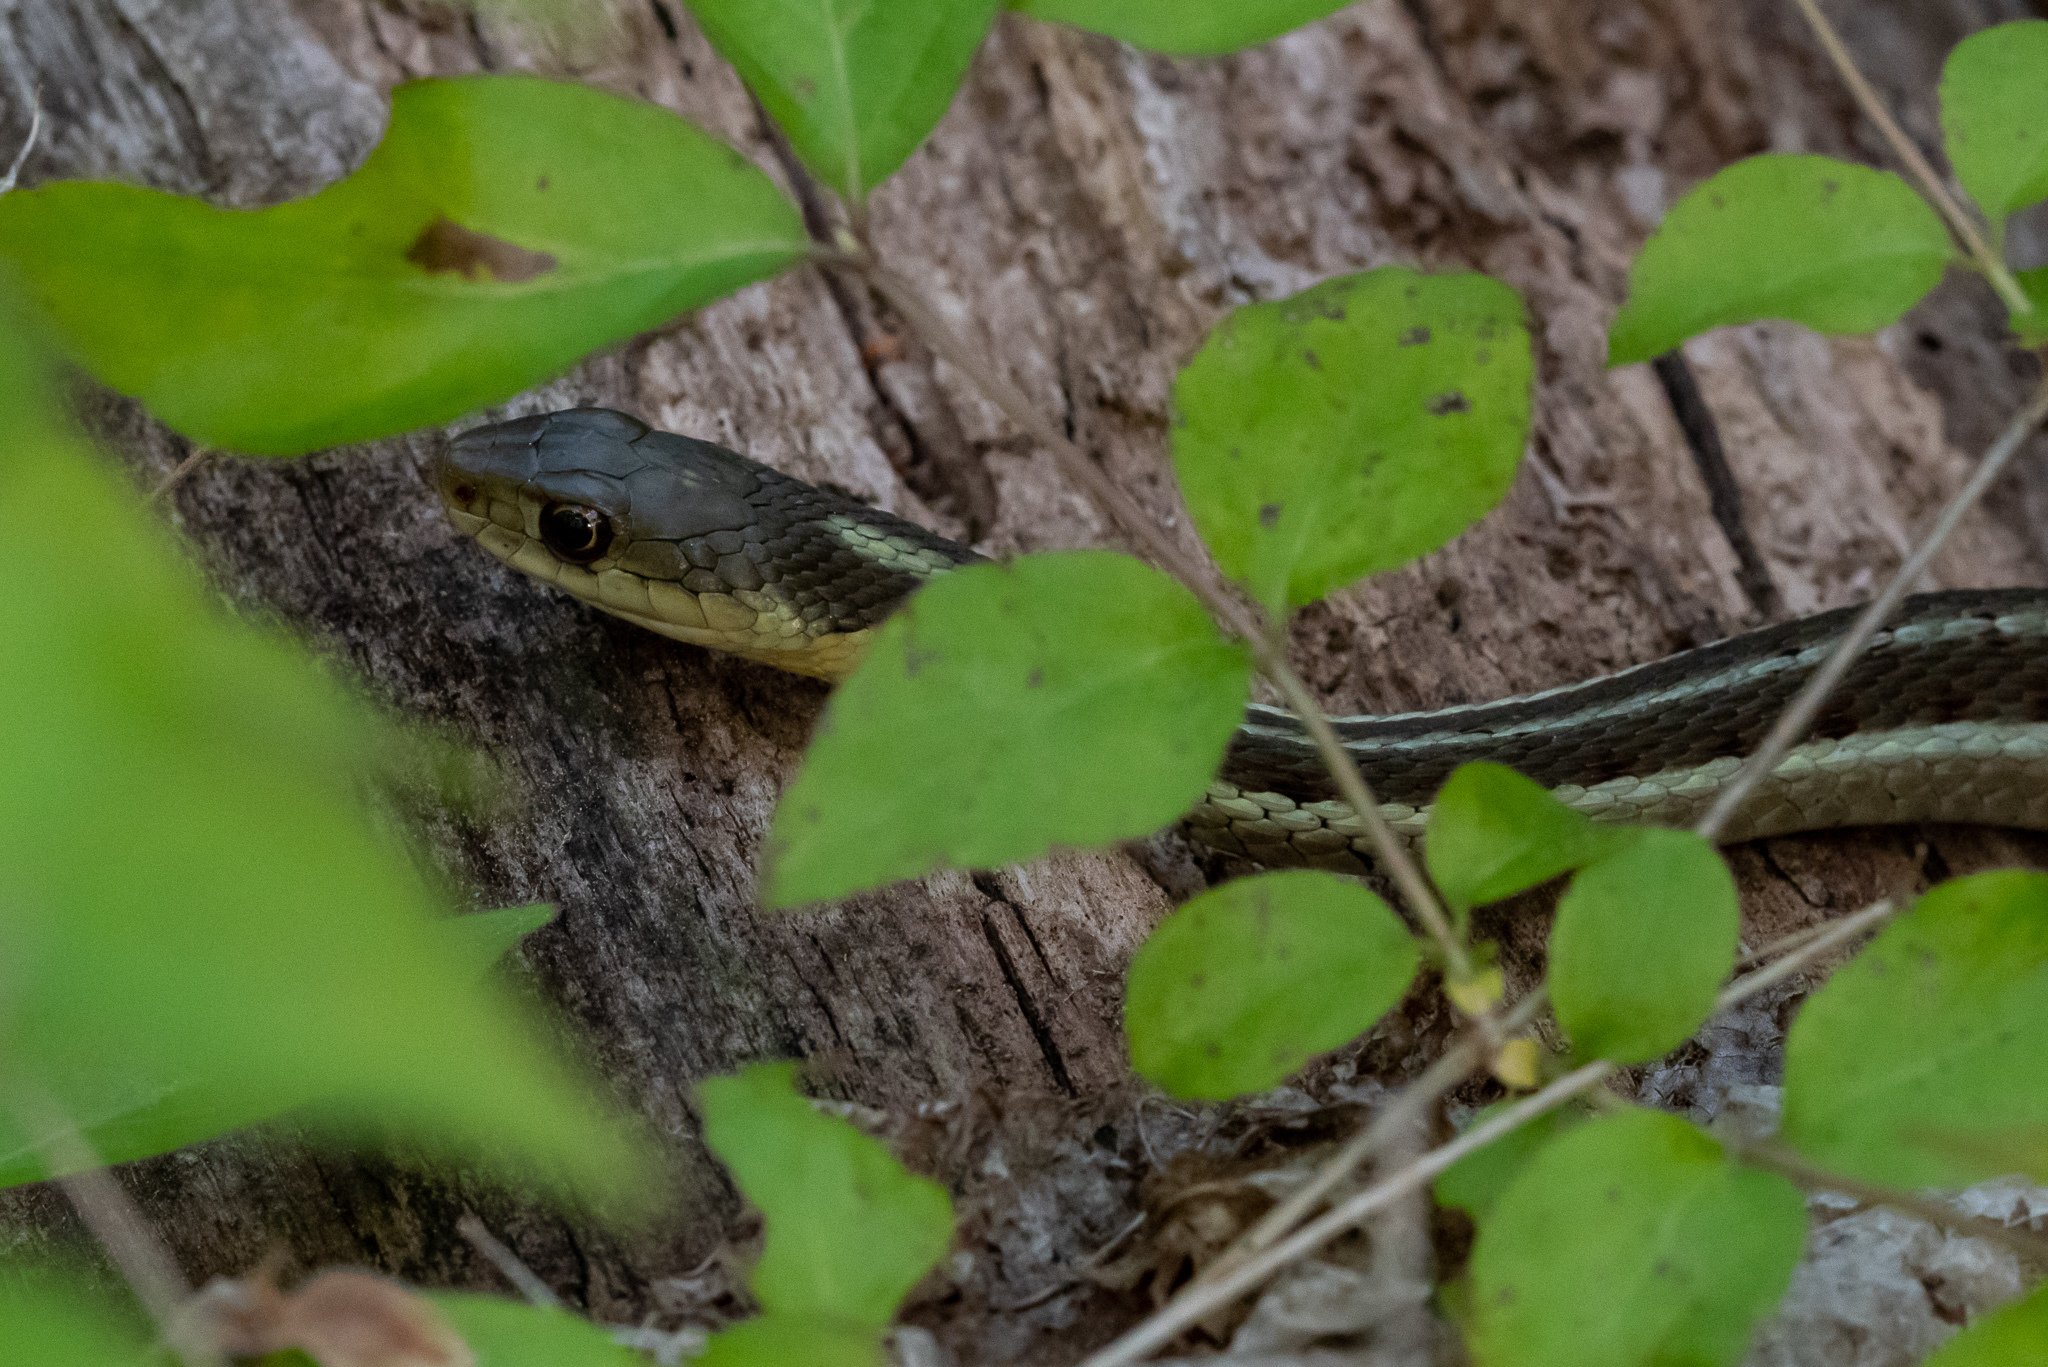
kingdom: Animalia
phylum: Chordata
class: Squamata
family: Colubridae
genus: Thamnophis
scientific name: Thamnophis sirtalis
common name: Common garter snake
